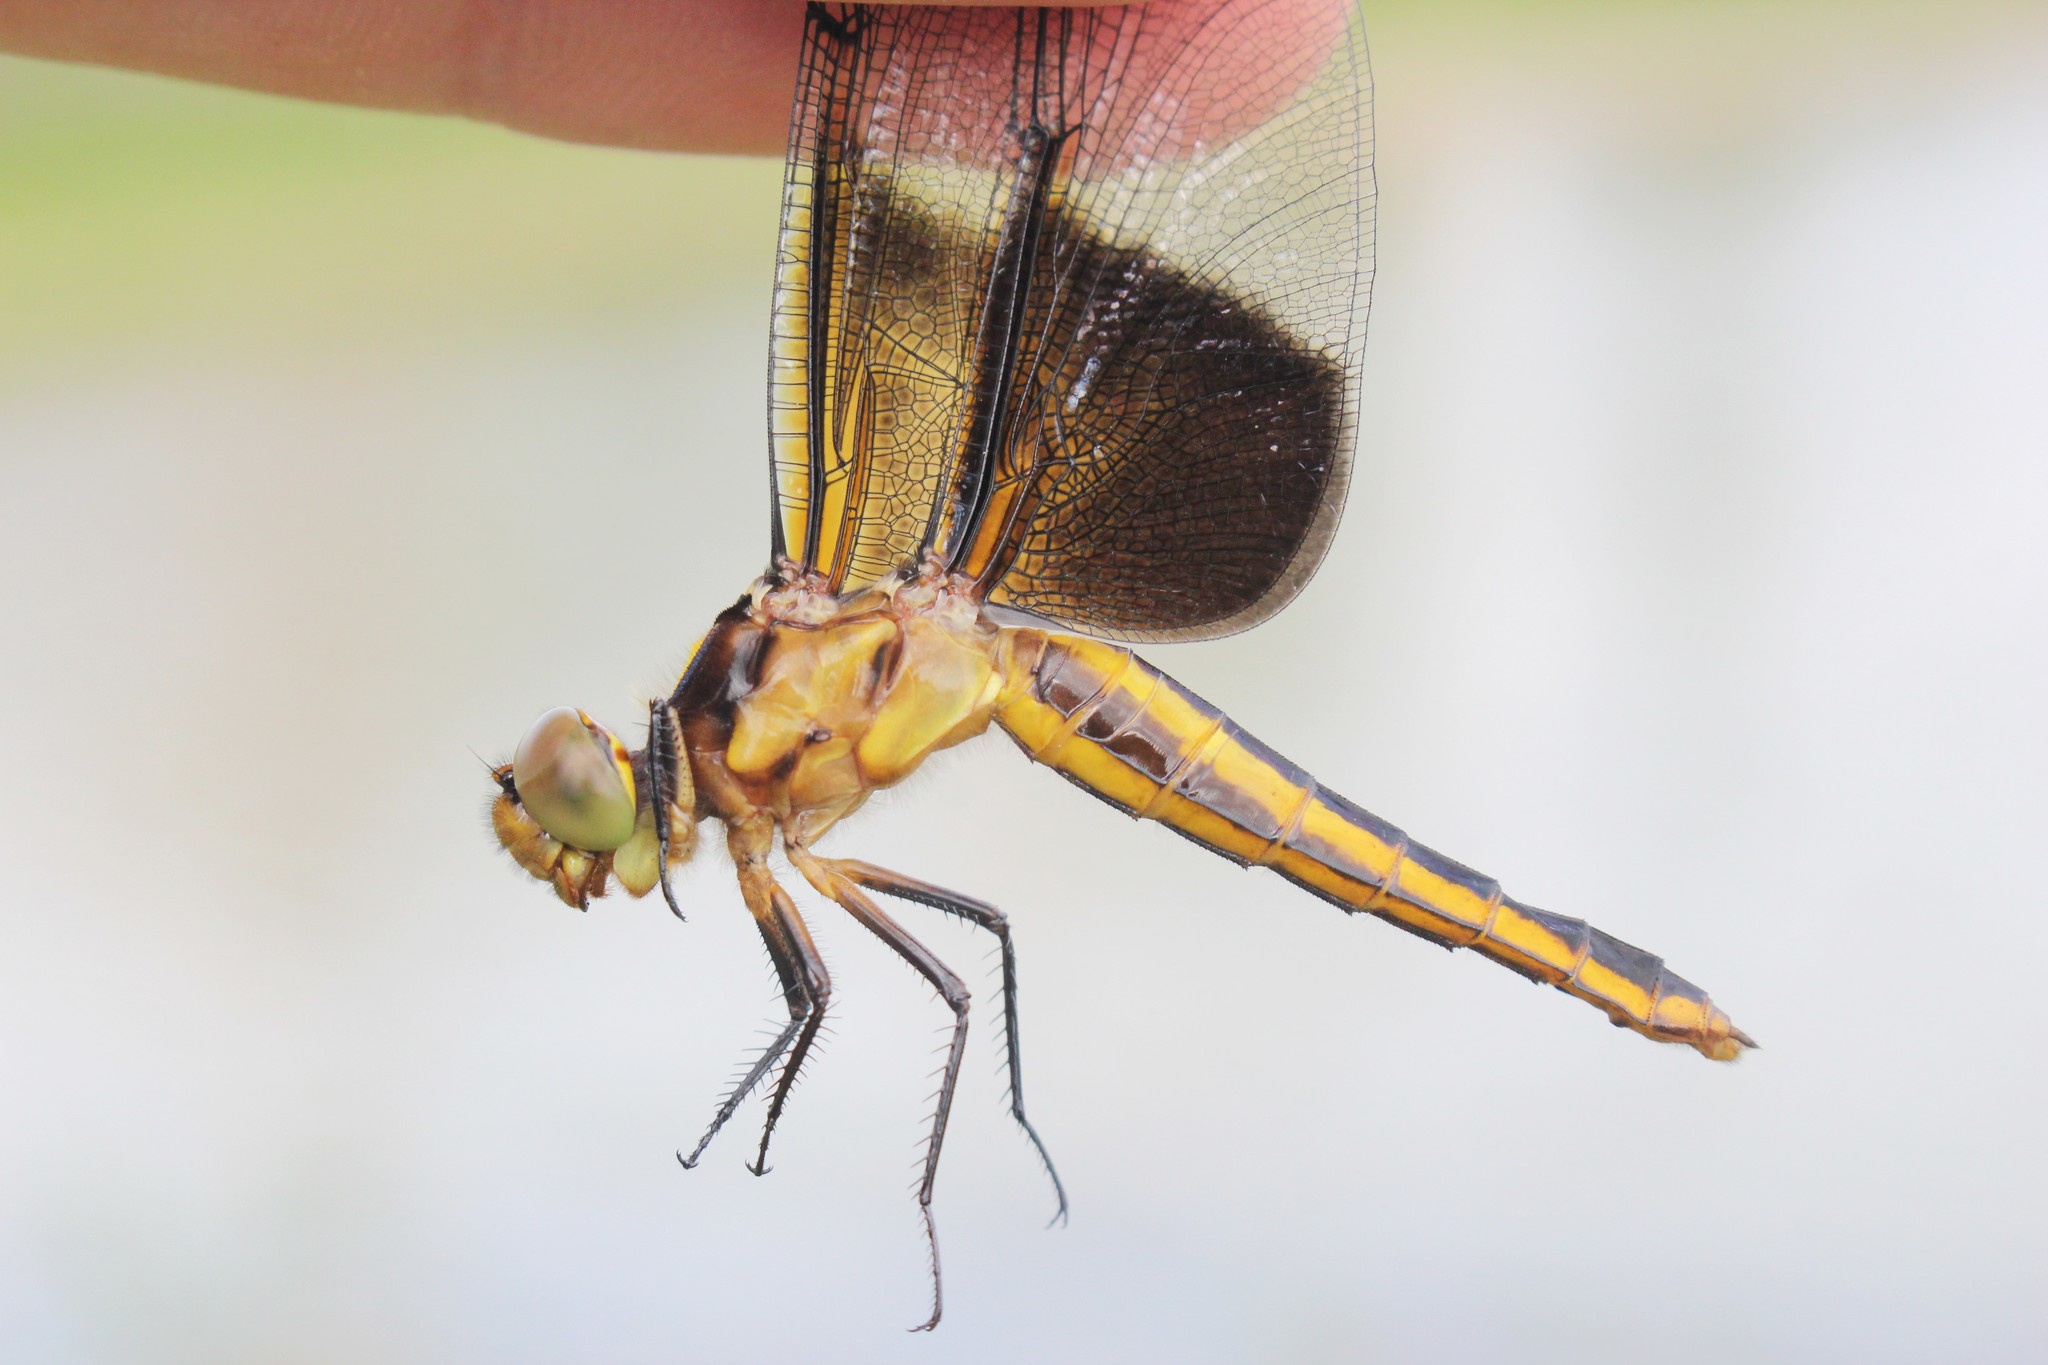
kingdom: Animalia
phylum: Arthropoda
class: Insecta
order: Odonata
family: Libellulidae
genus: Libellula
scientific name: Libellula luctuosa
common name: Widow skimmer
